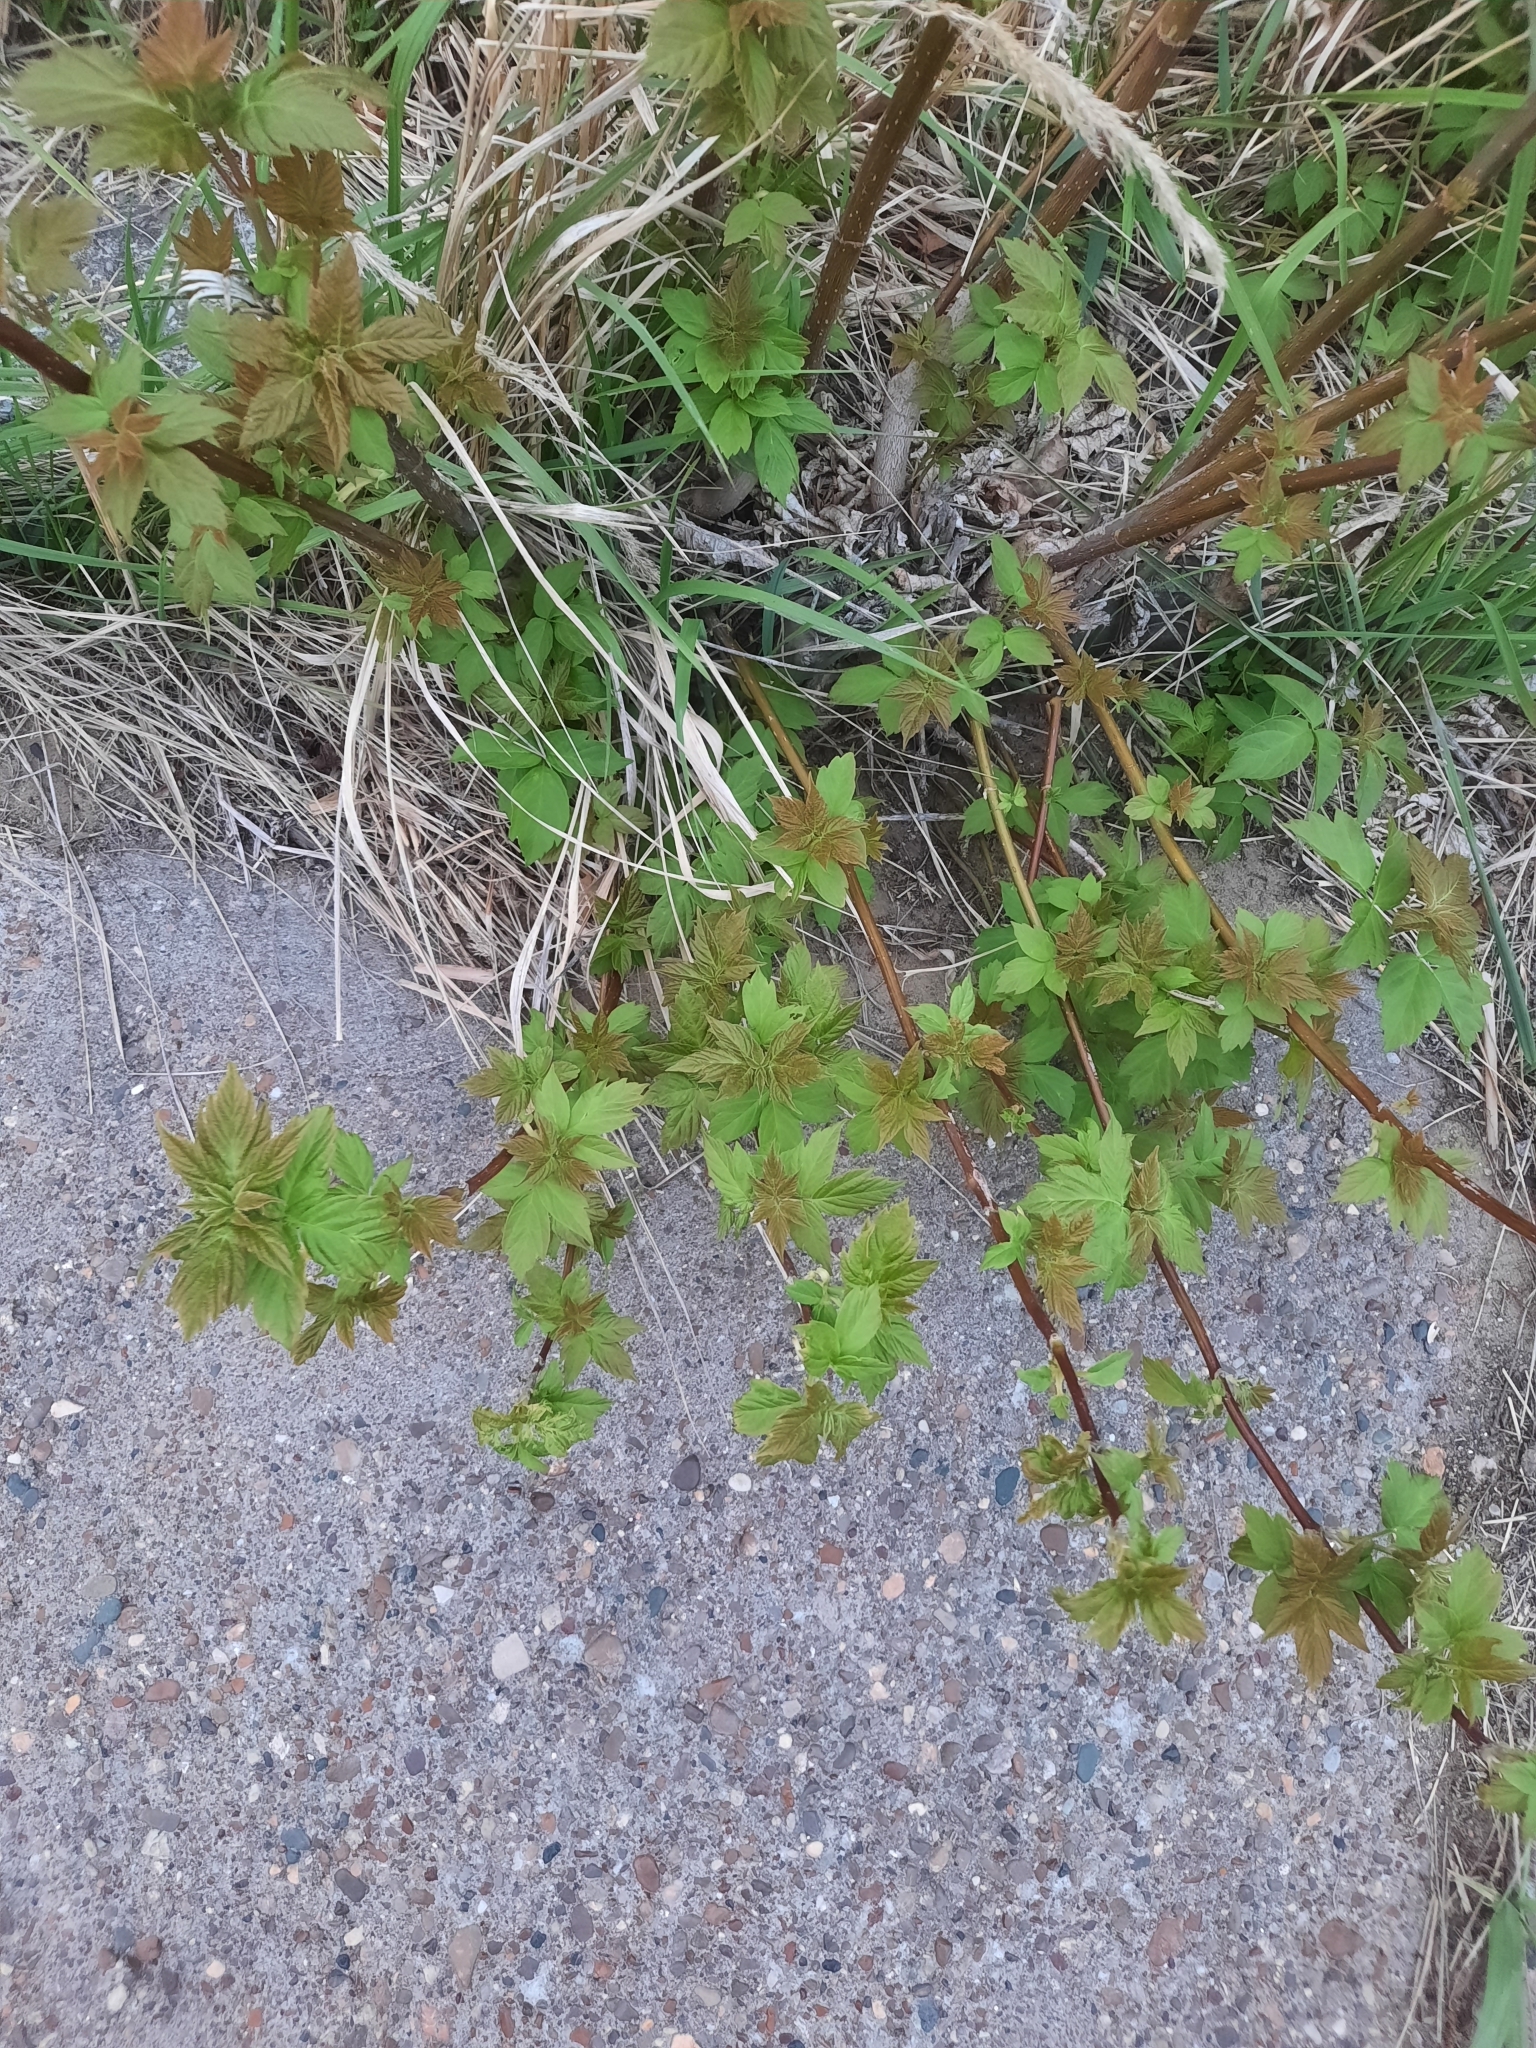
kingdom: Plantae
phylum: Tracheophyta
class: Magnoliopsida
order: Sapindales
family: Sapindaceae
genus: Acer
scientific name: Acer negundo
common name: Ashleaf maple
